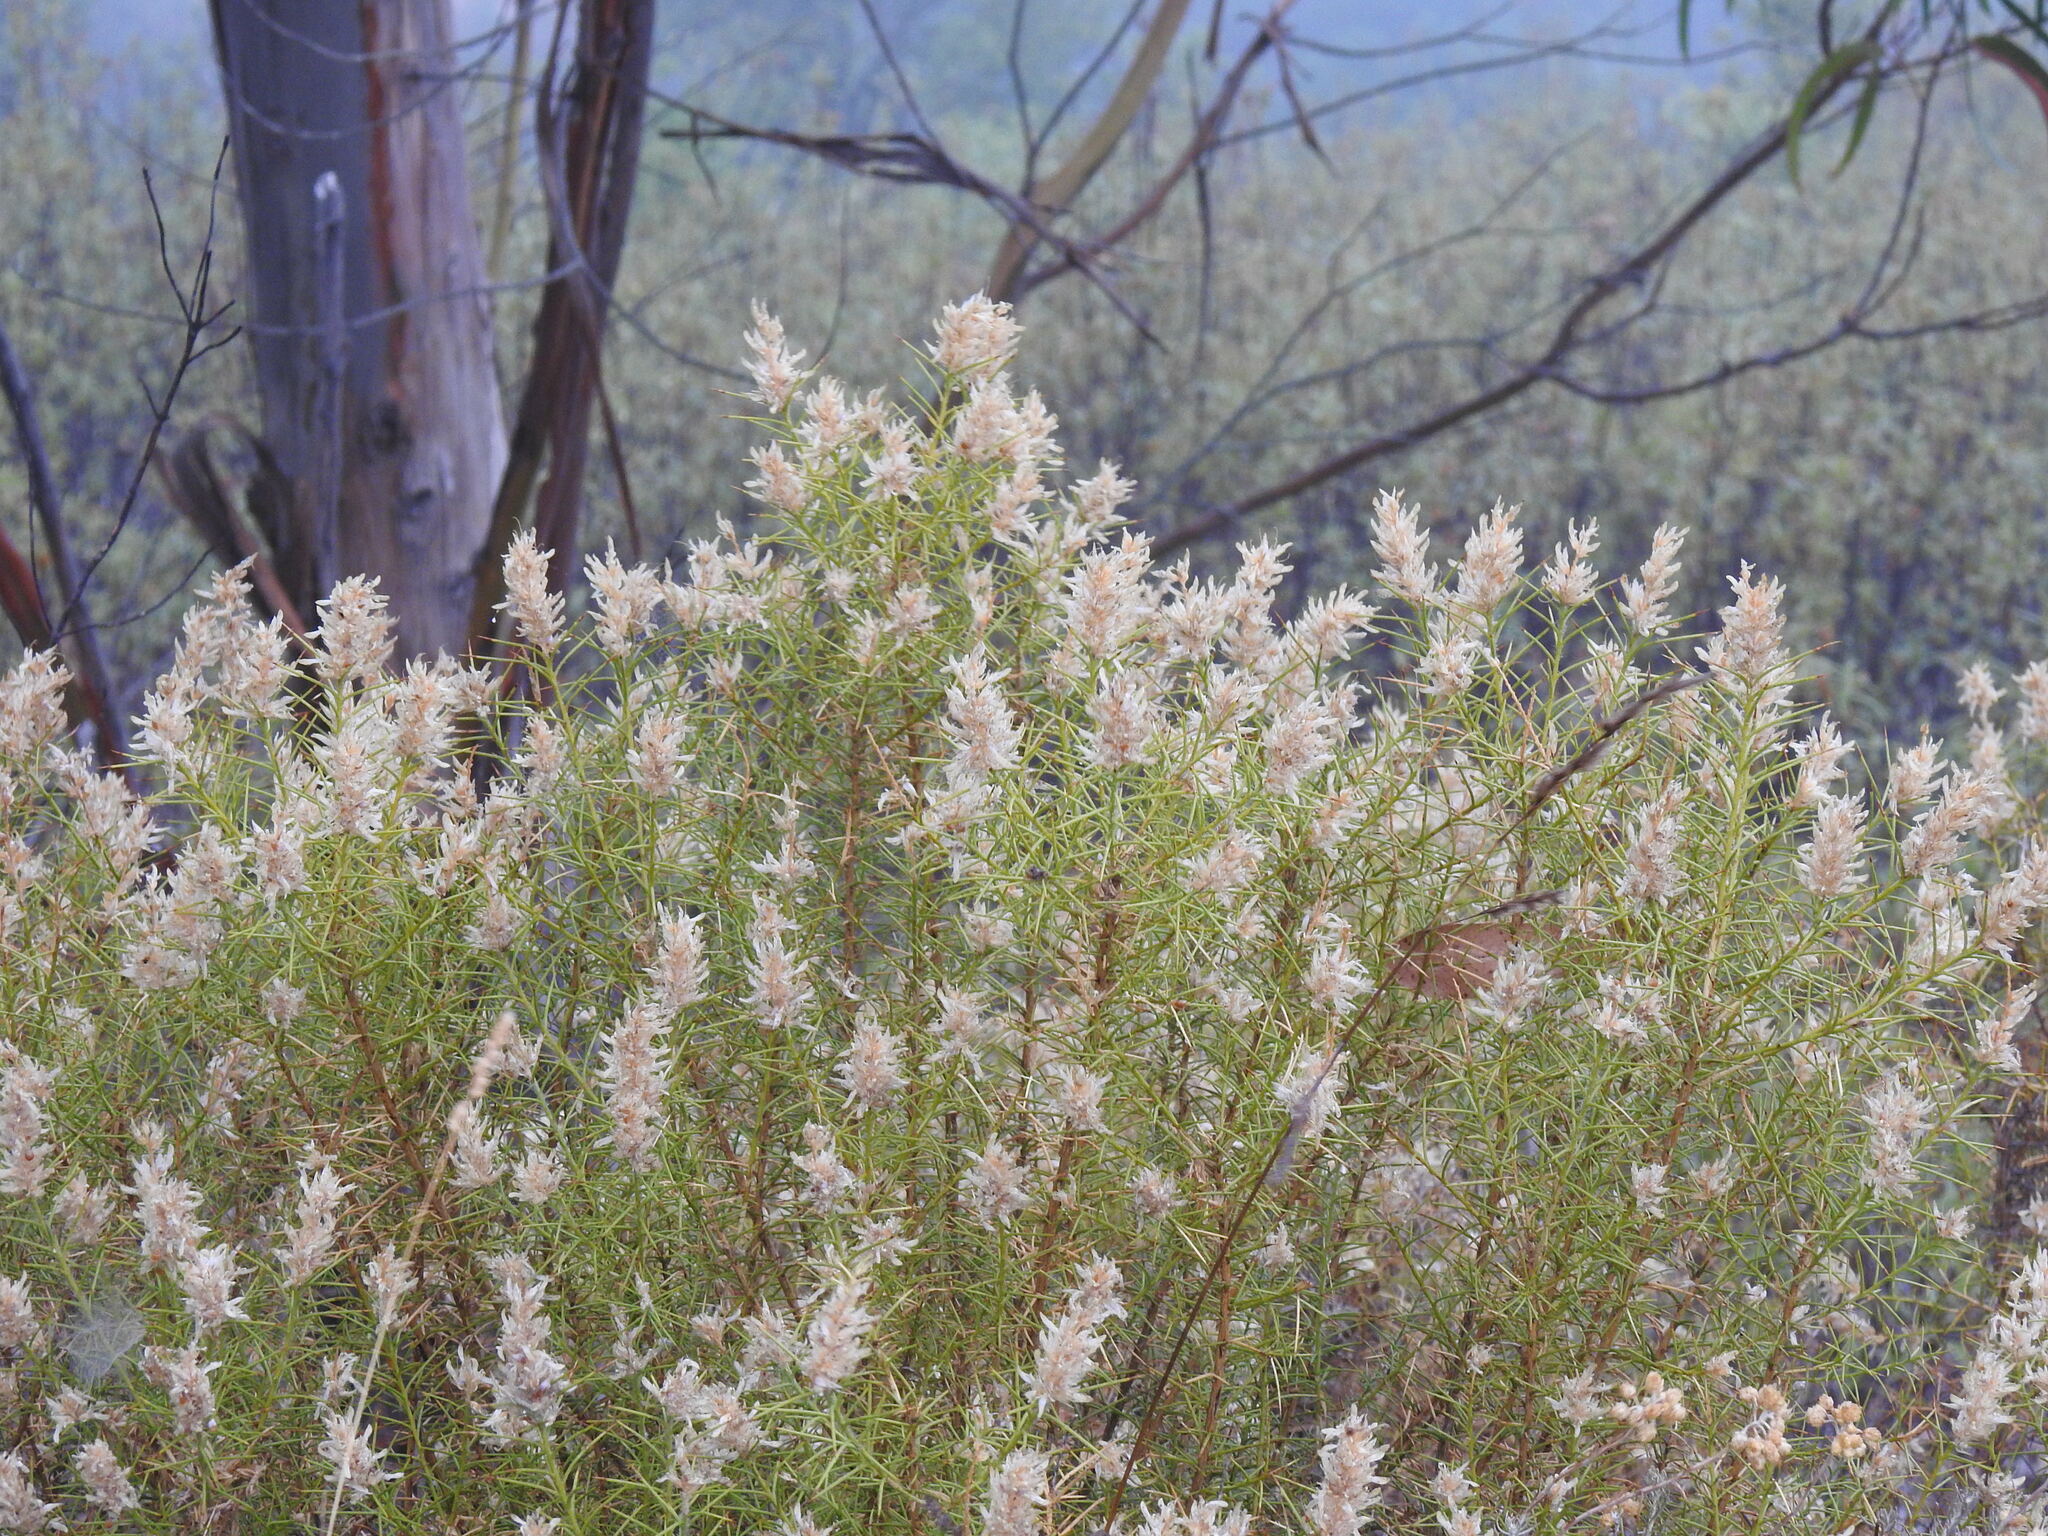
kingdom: Plantae
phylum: Tracheophyta
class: Magnoliopsida
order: Fabales
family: Fabaceae
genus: Genista
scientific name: Genista hirsuta
